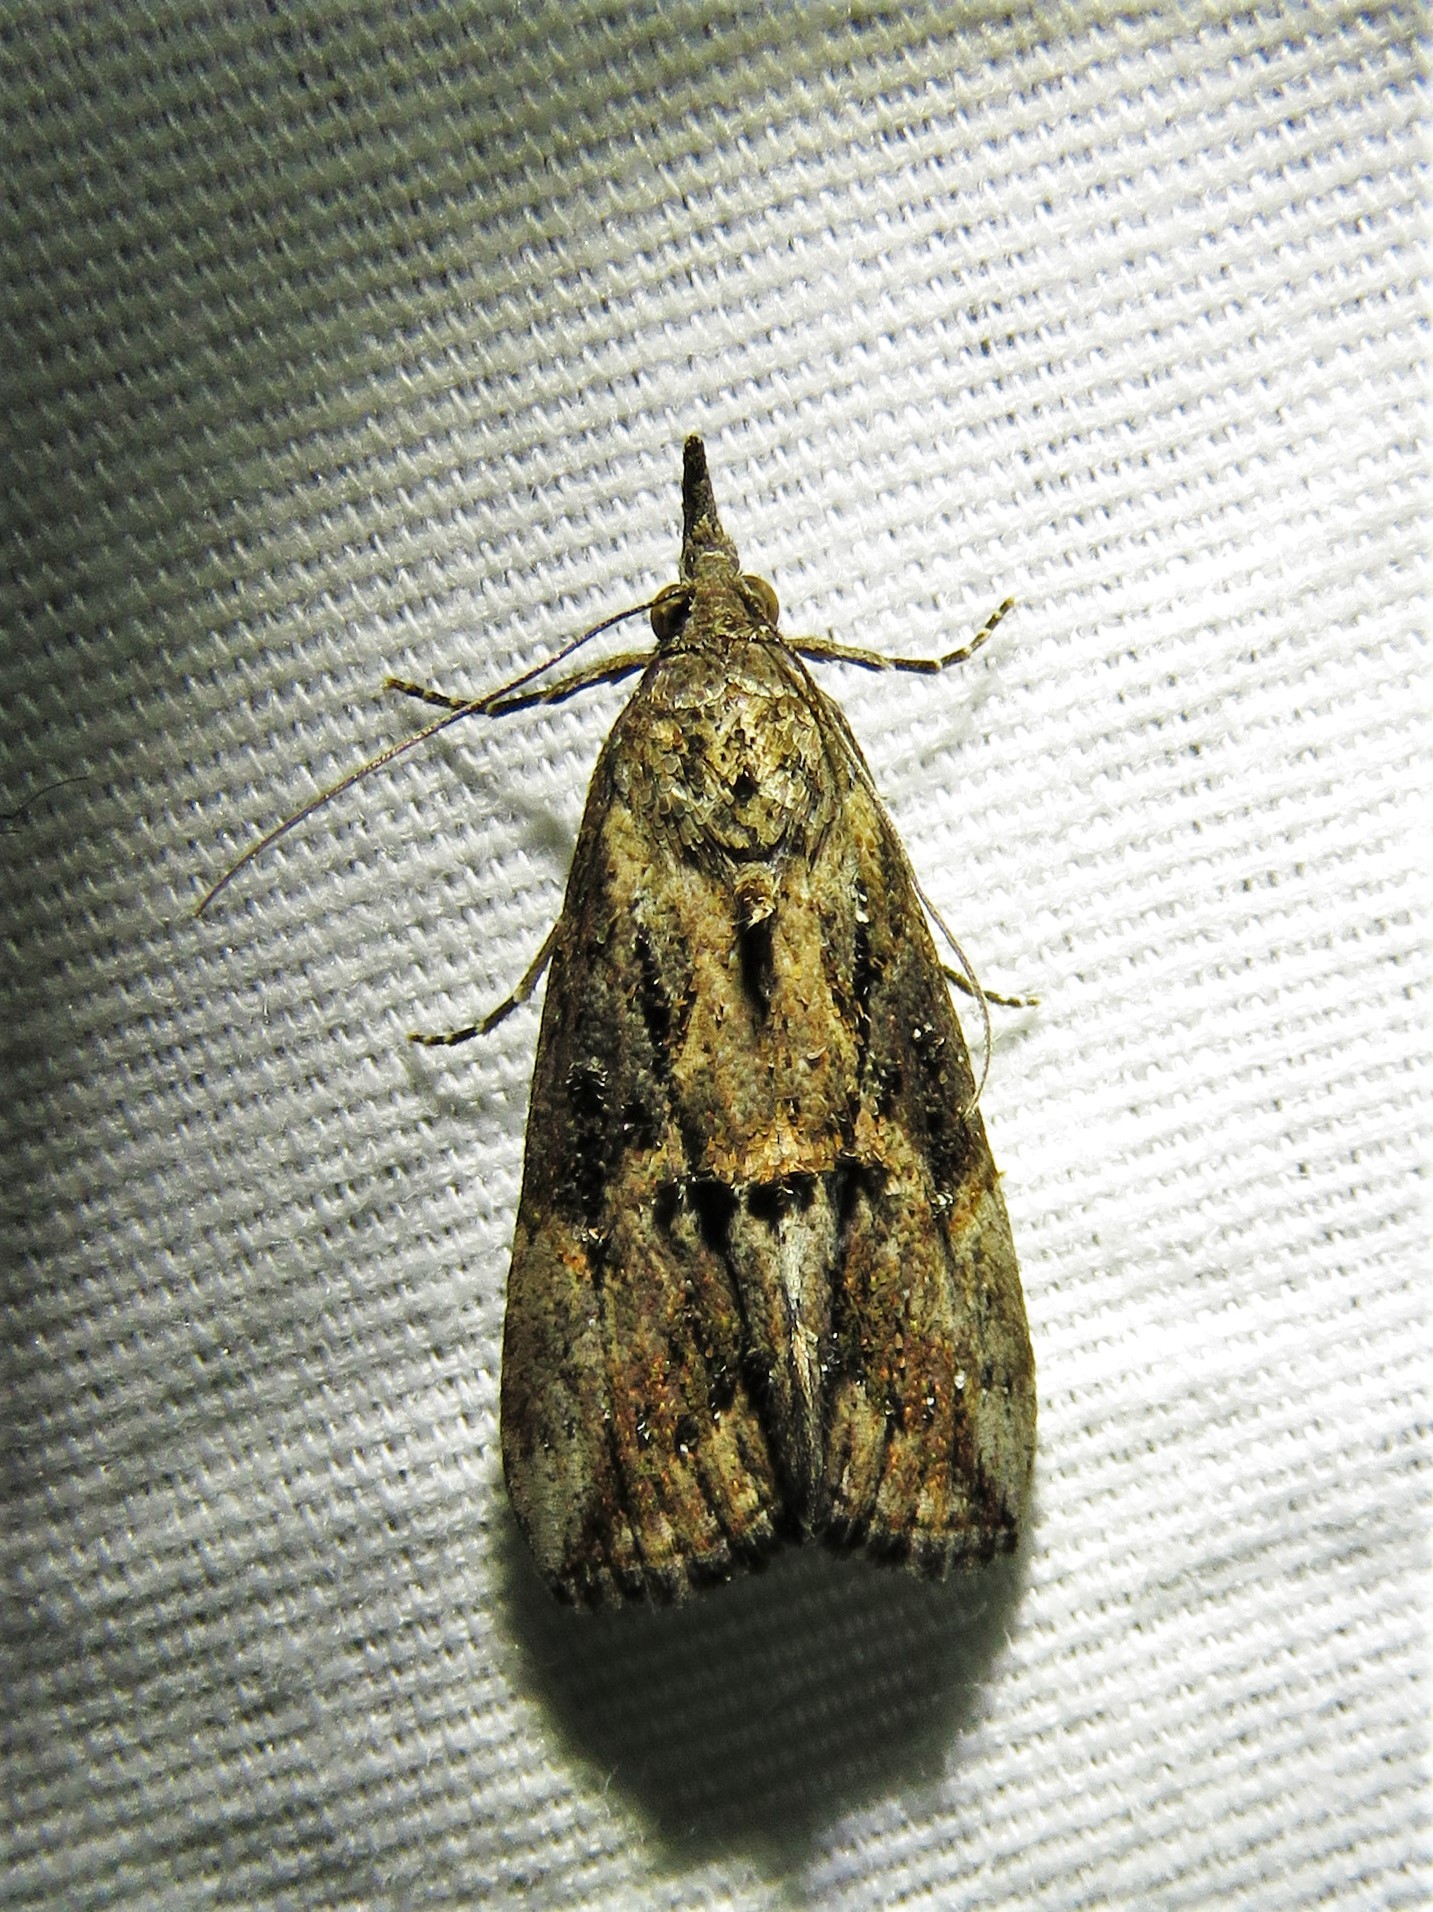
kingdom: Animalia
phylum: Arthropoda
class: Insecta
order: Lepidoptera
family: Erebidae
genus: Hypena
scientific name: Hypena scabra
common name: Green cloverworm
